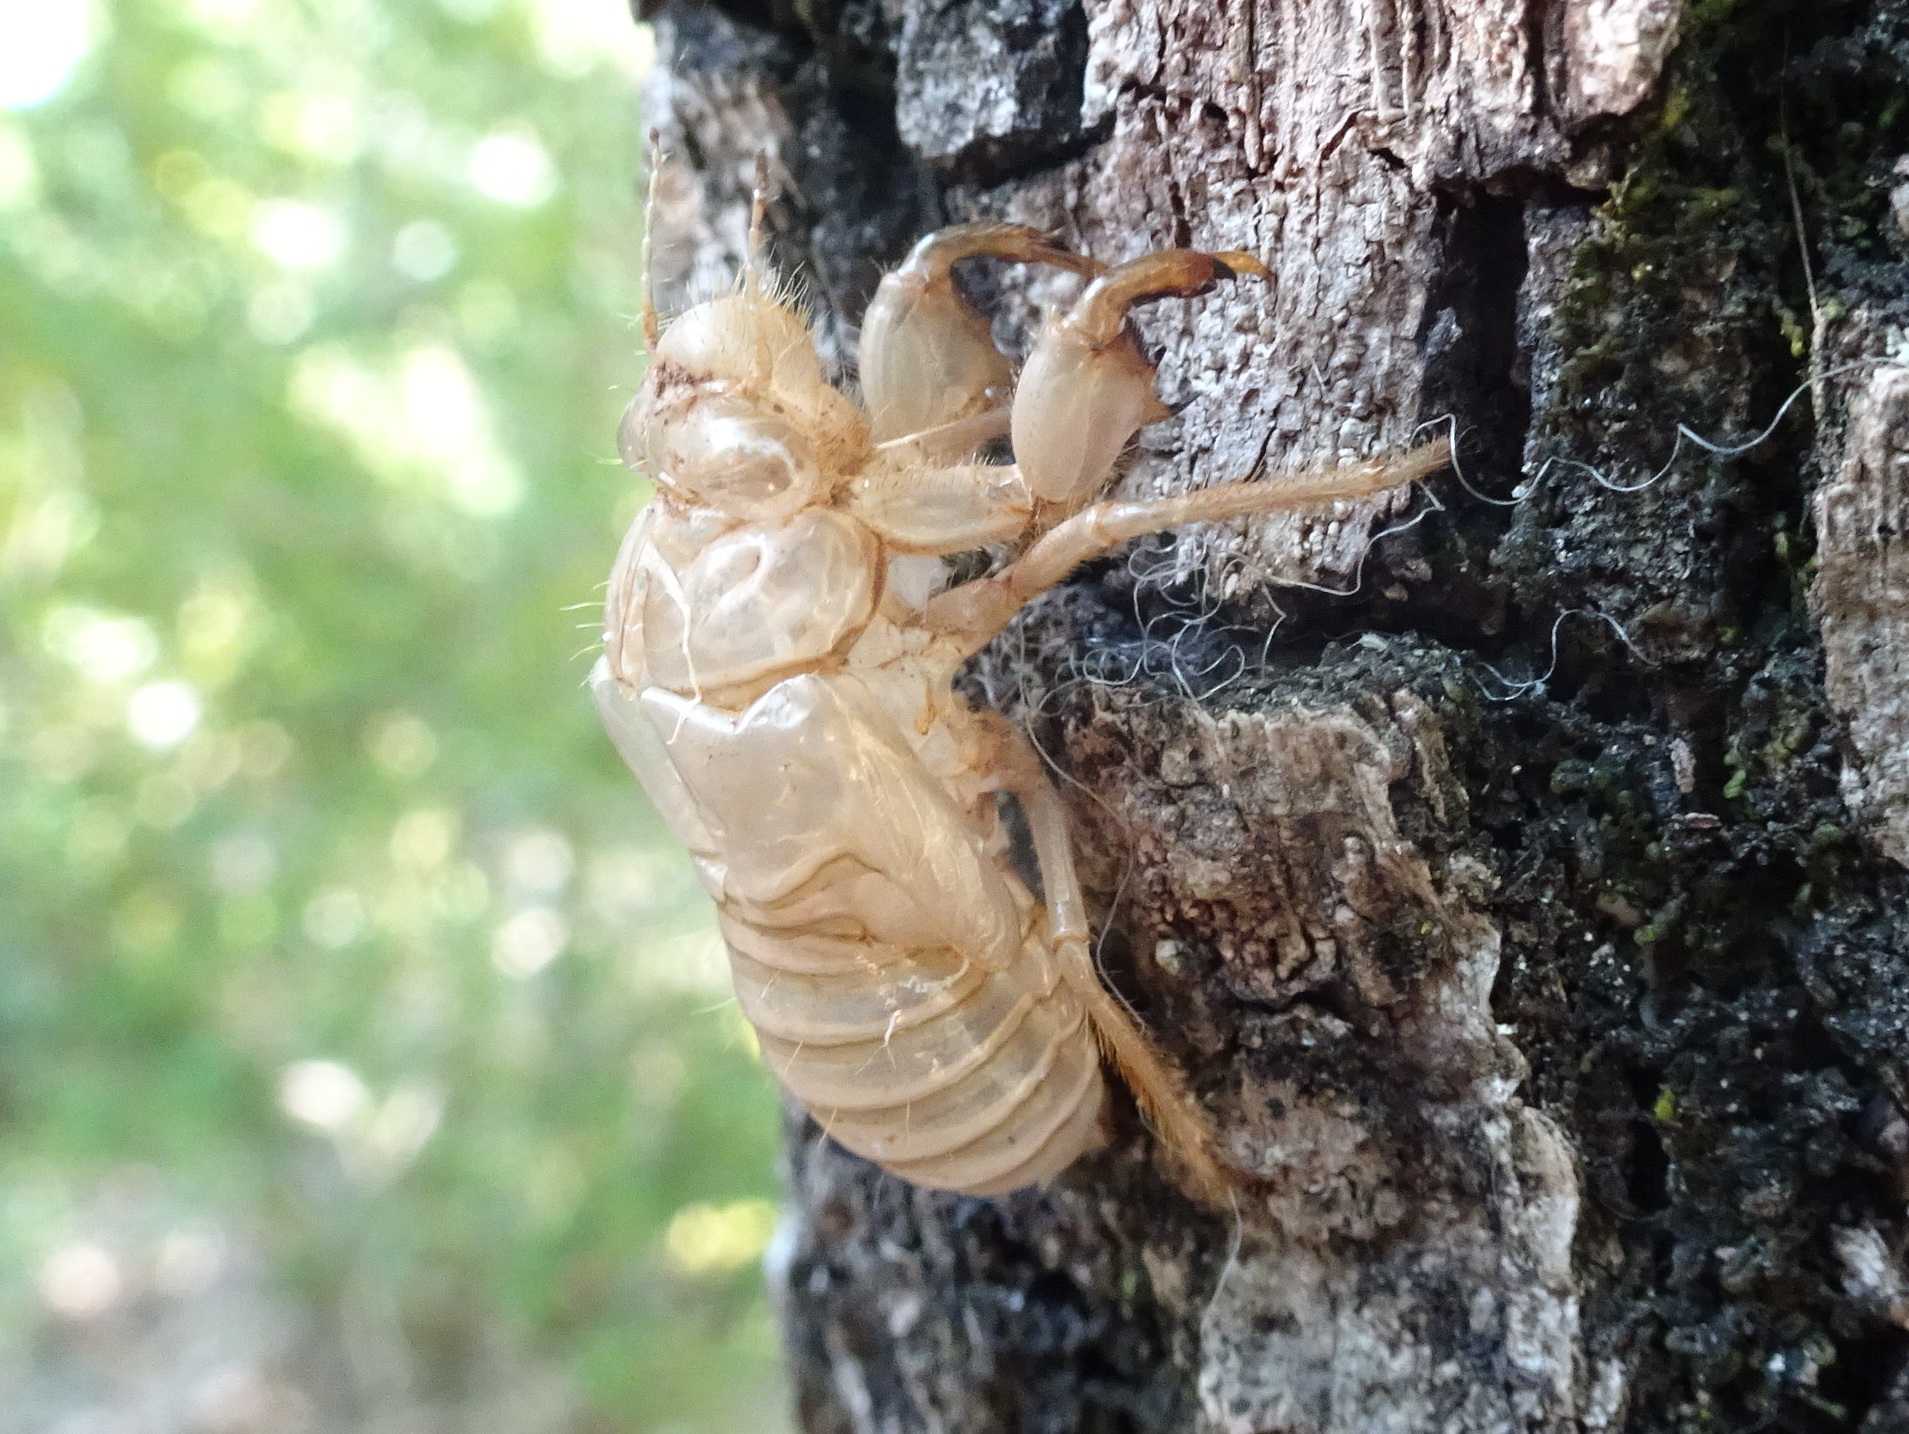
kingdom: Animalia
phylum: Arthropoda
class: Insecta
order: Hemiptera
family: Cicadidae
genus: Cicada
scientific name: Cicada orni
